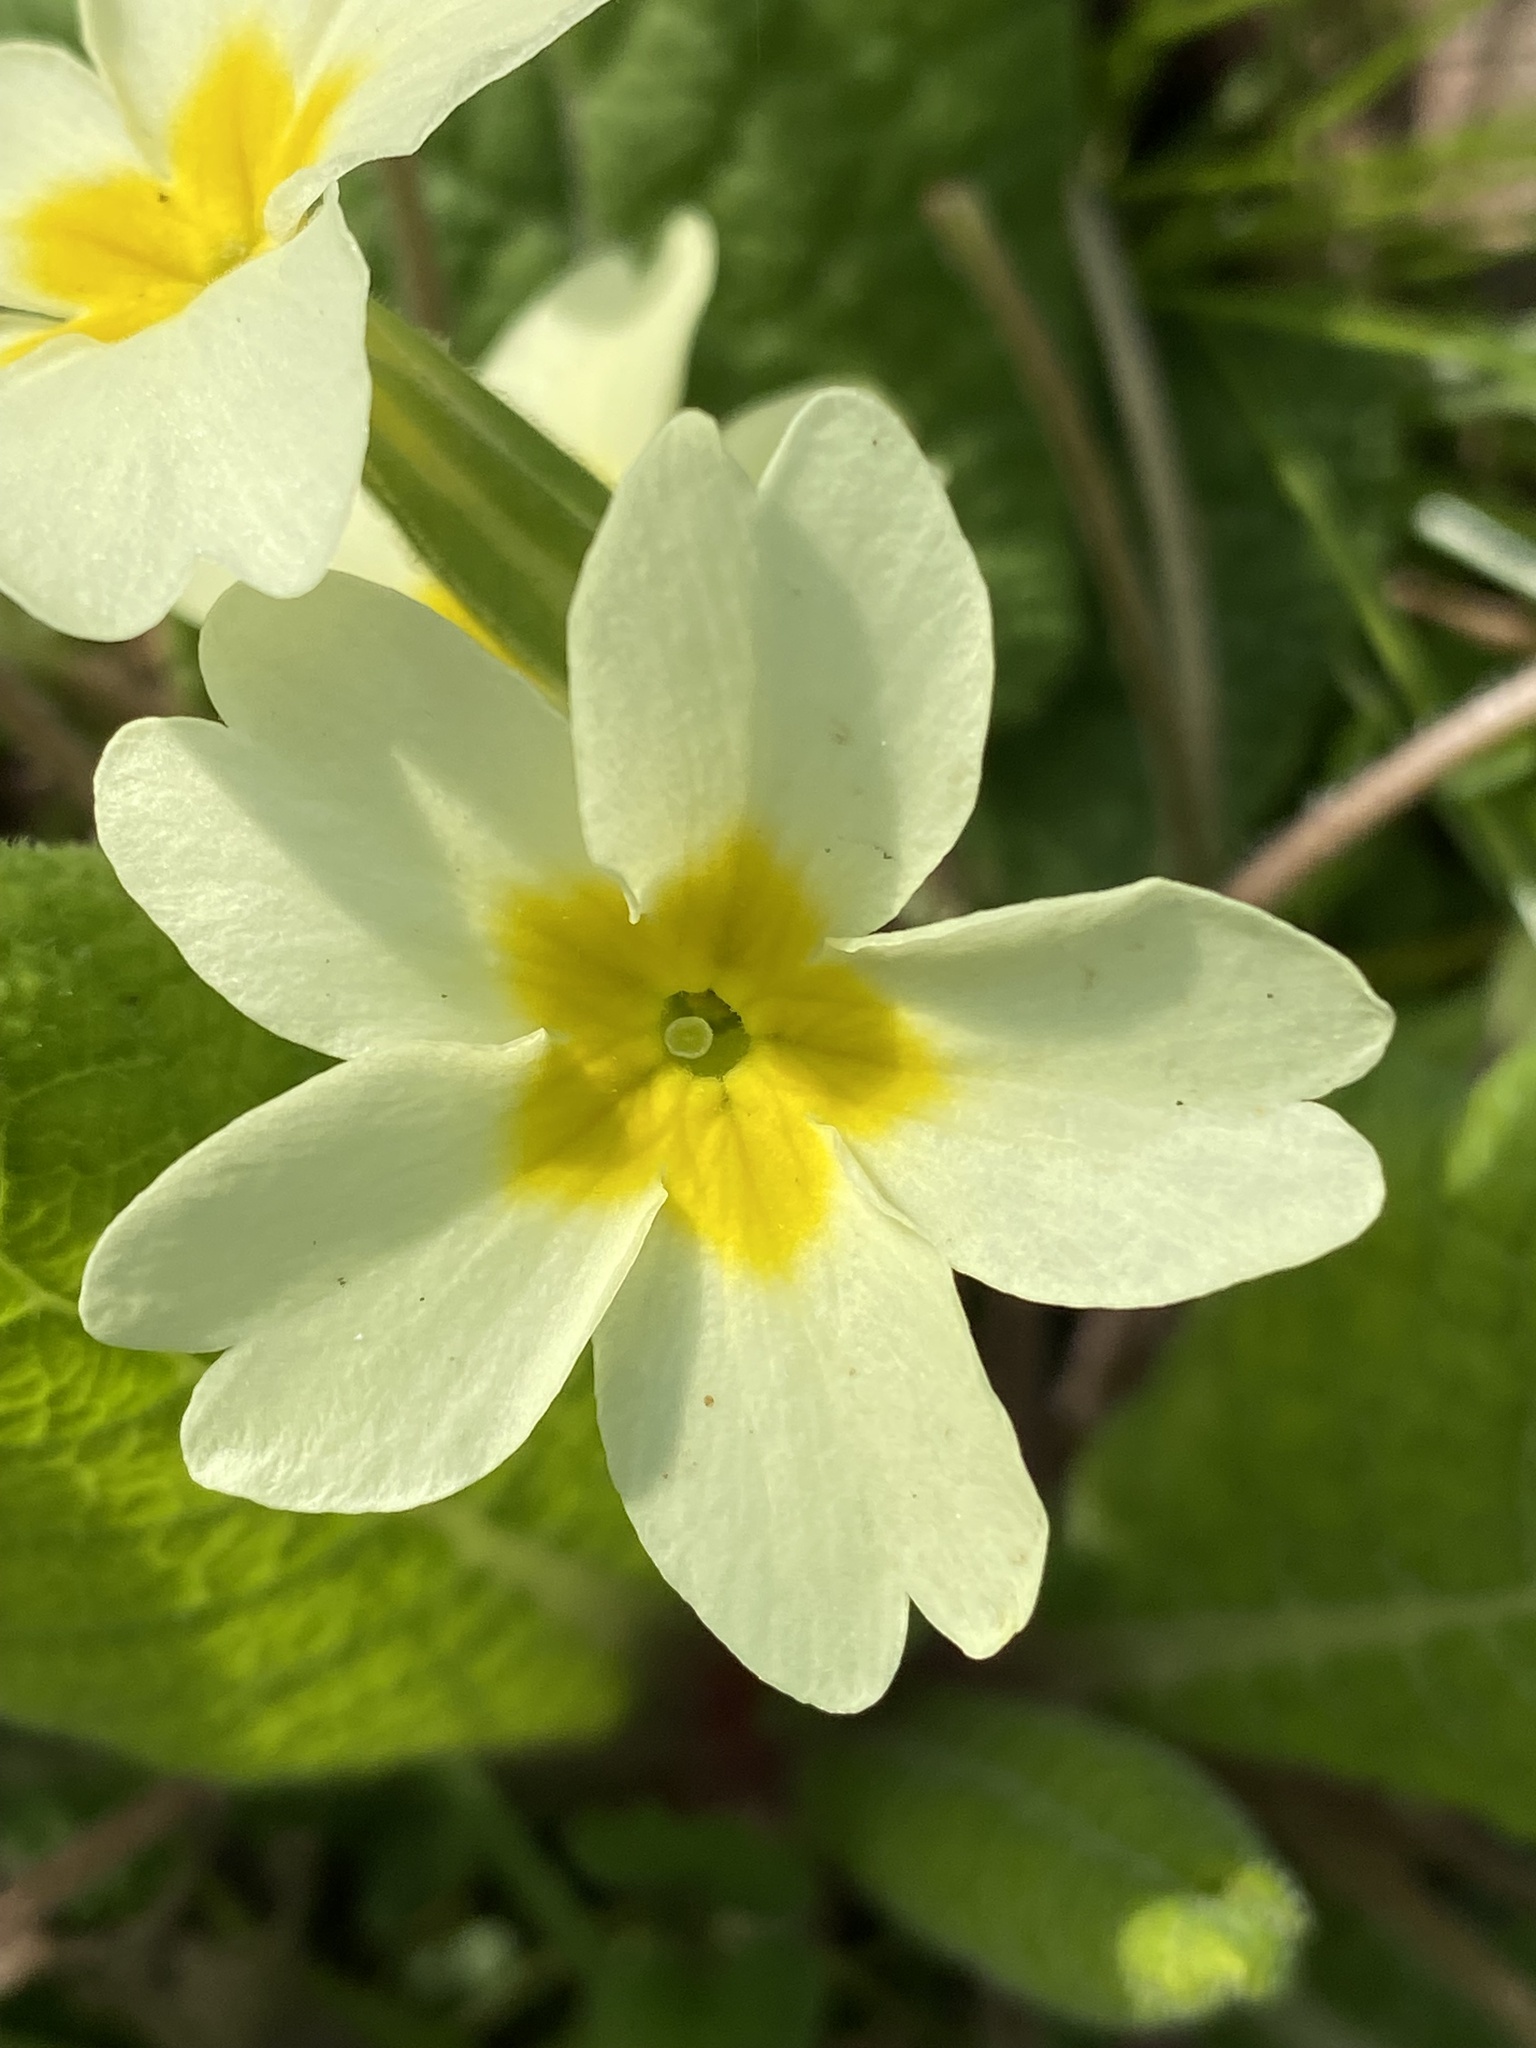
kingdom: Plantae
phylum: Tracheophyta
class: Magnoliopsida
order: Ericales
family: Primulaceae
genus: Primula
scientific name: Primula vulgaris
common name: Primrose
